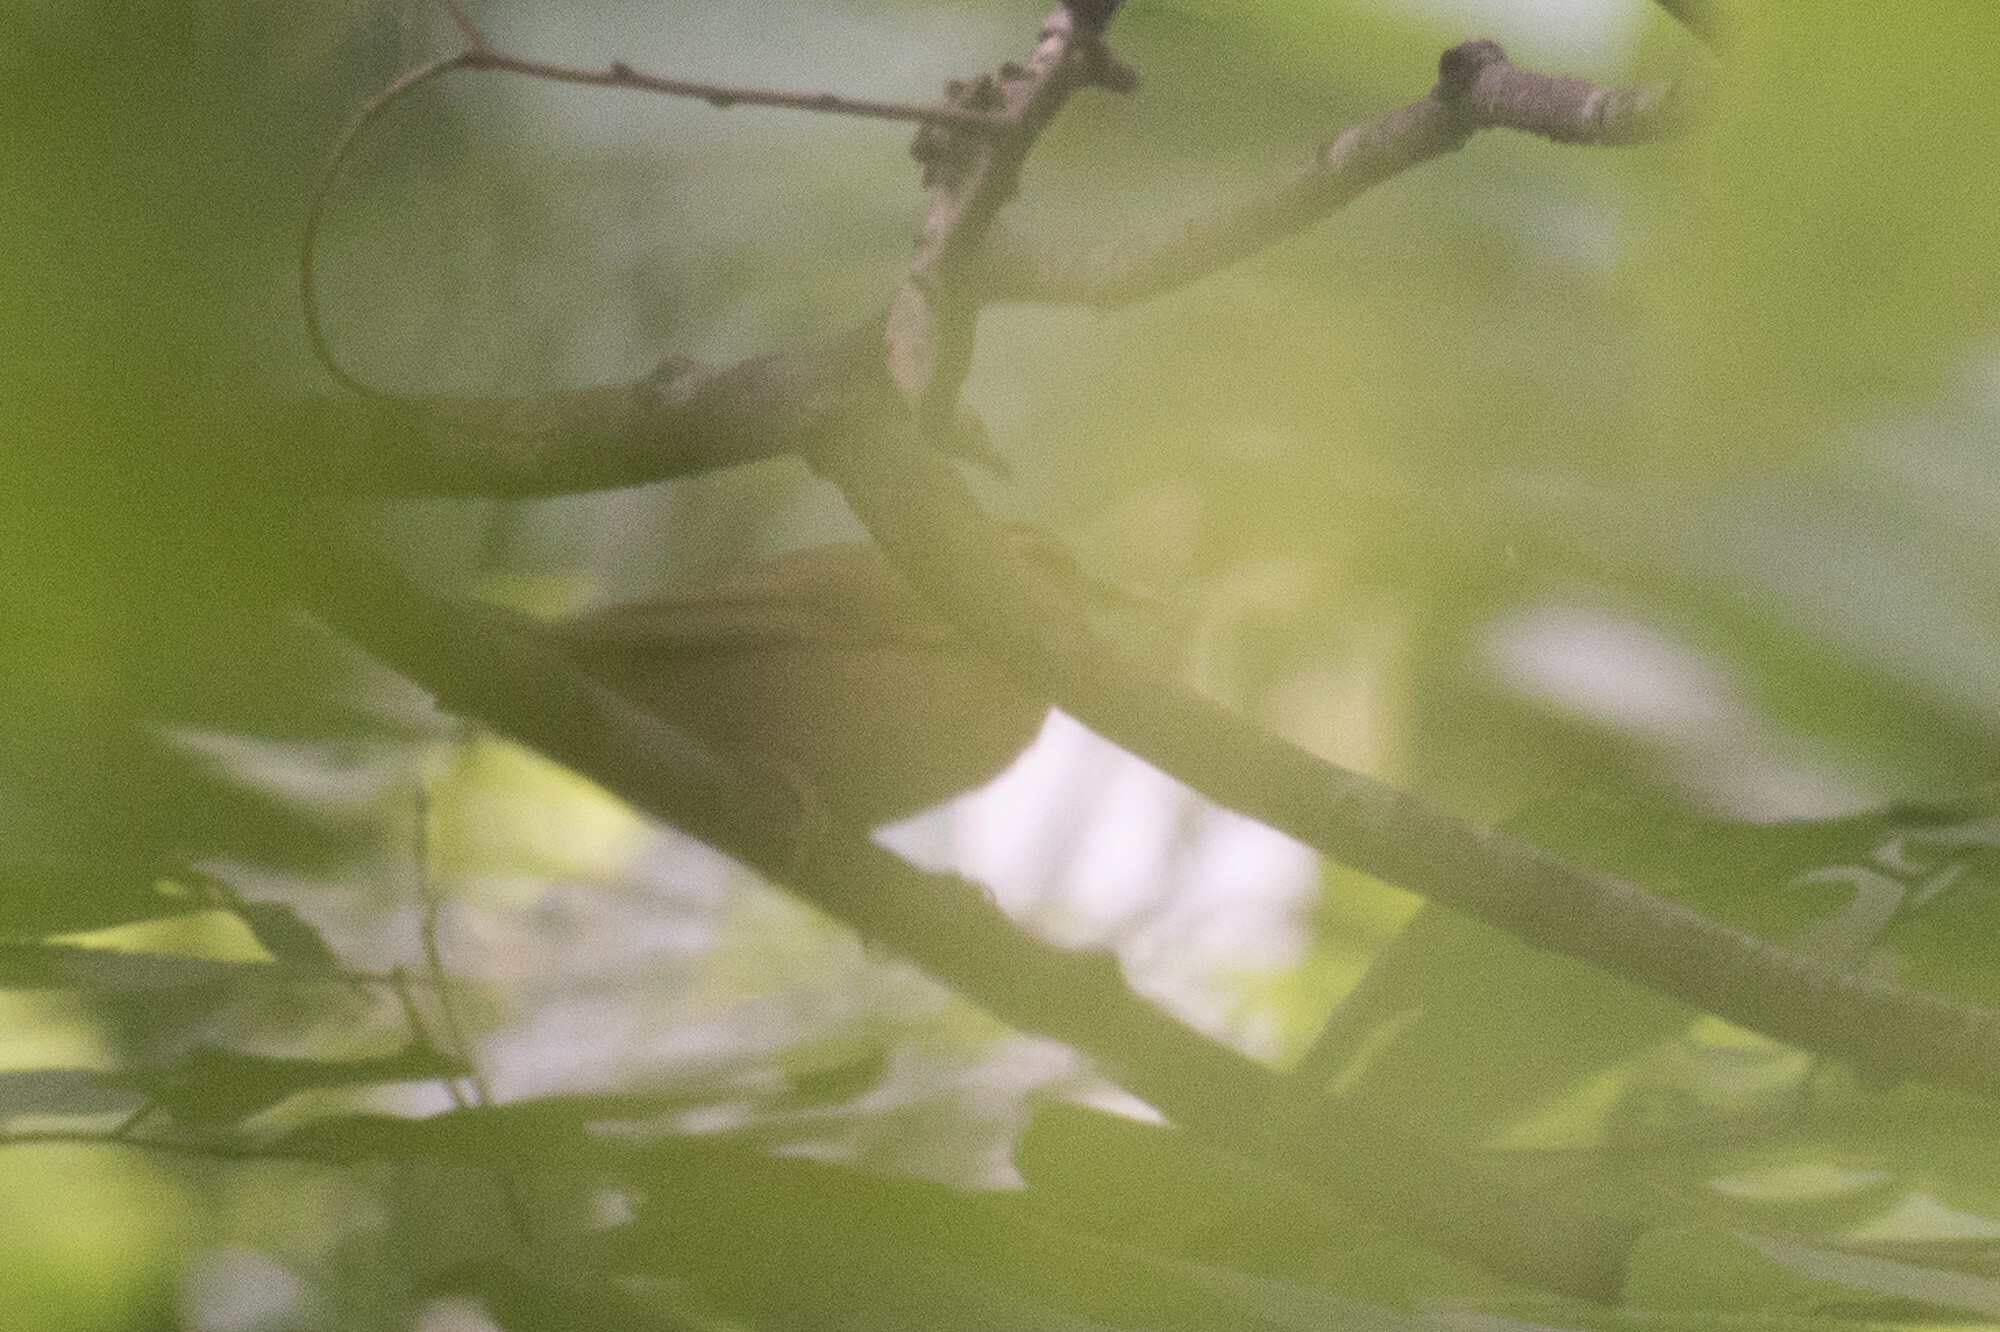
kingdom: Animalia
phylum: Chordata
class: Aves
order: Passeriformes
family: Parulidae
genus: Helmitheros
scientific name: Helmitheros vermivorum
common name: Worm-eating warbler
